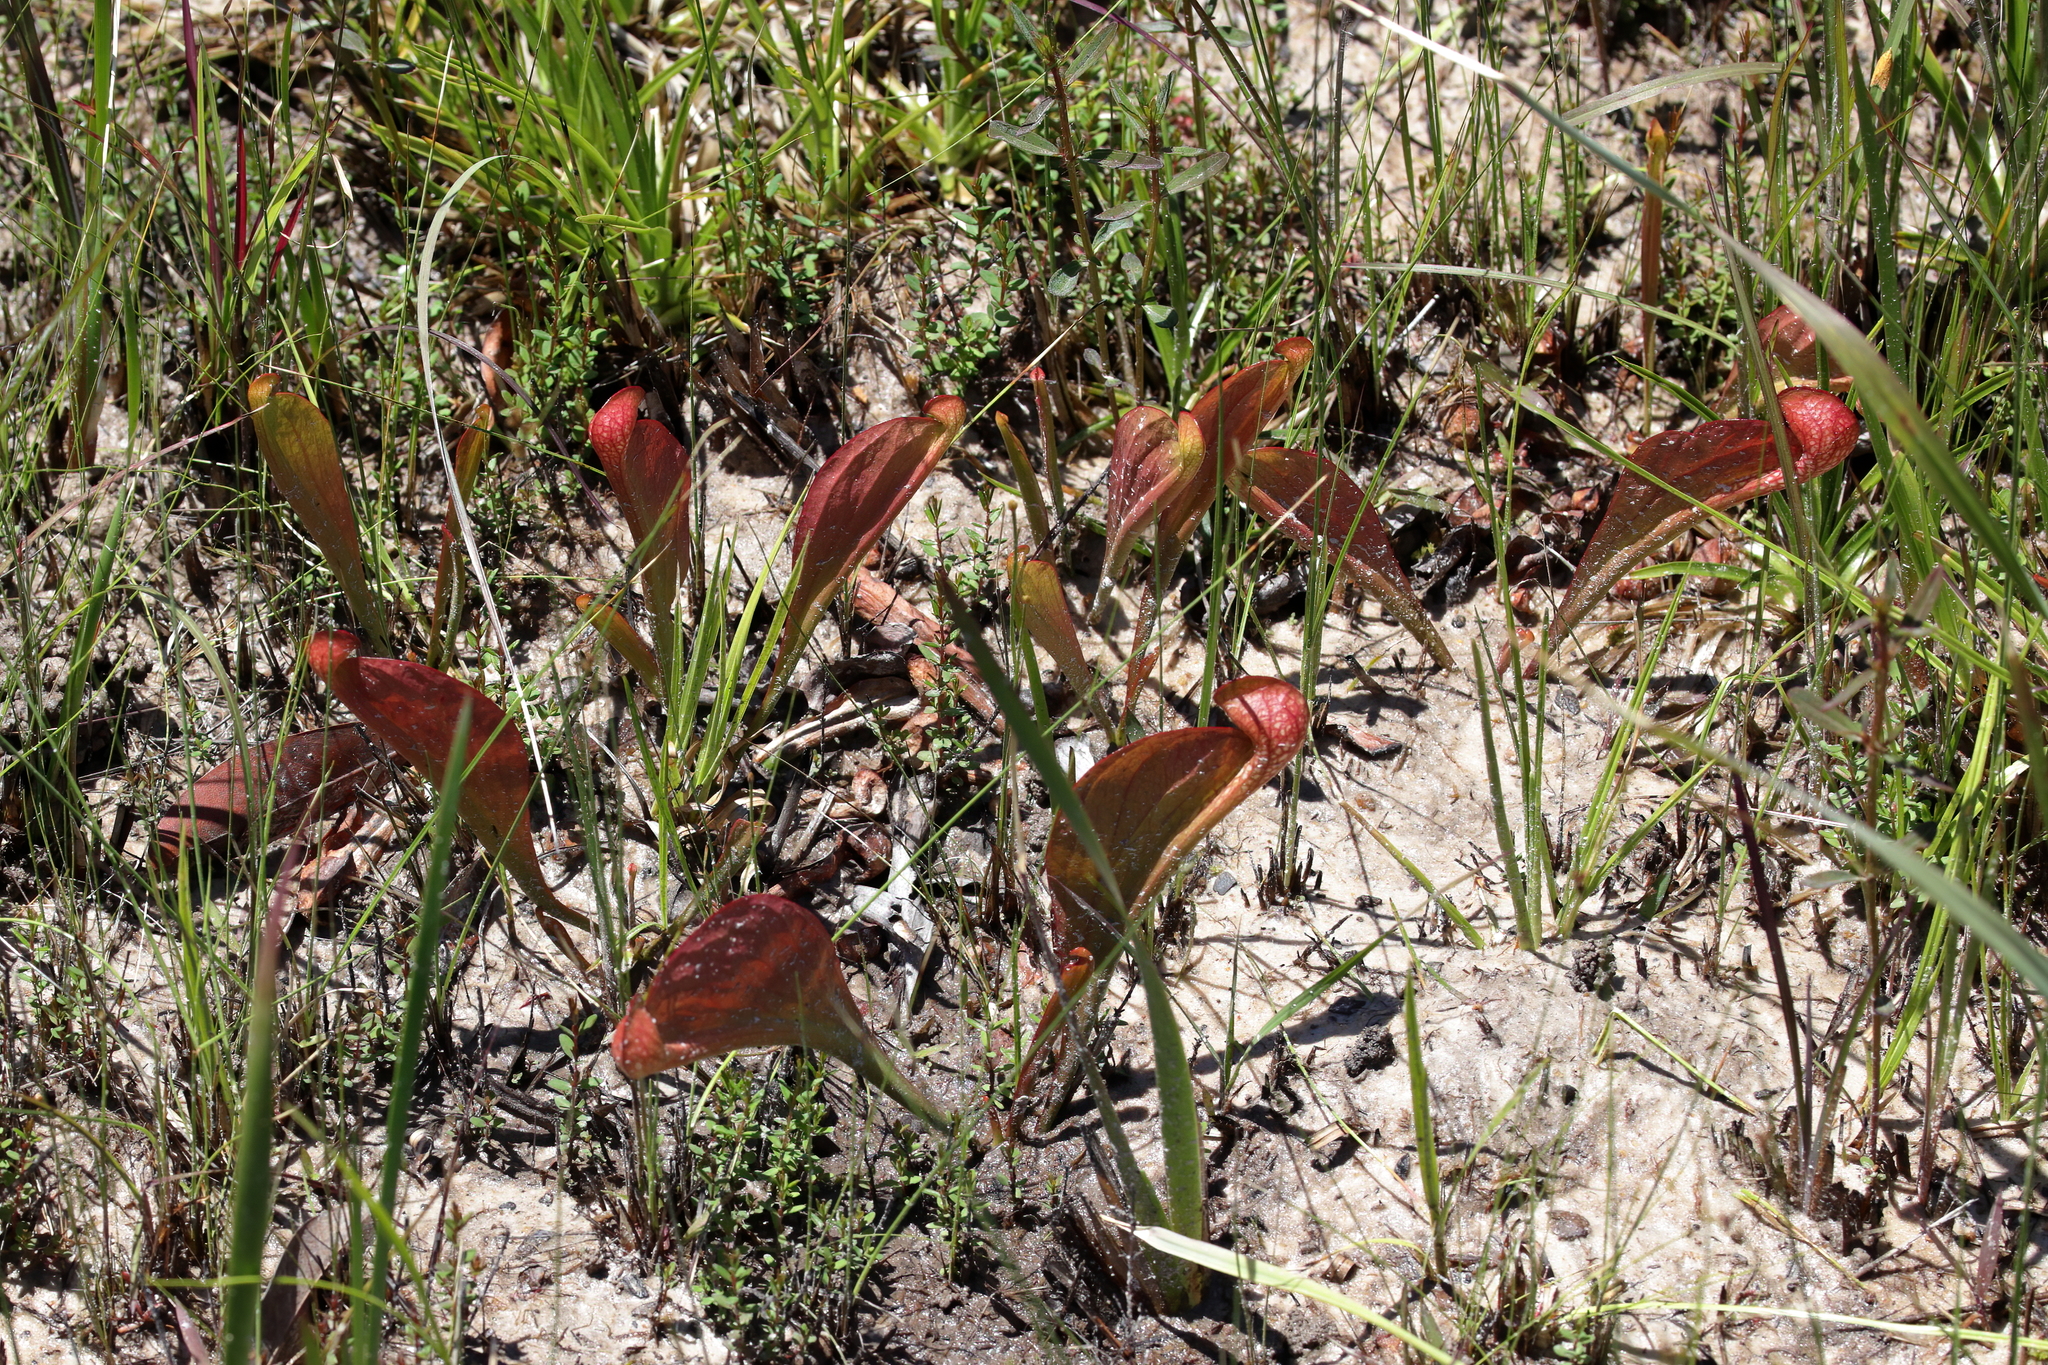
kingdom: Plantae
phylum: Tracheophyta
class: Magnoliopsida
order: Ericales
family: Sarraceniaceae
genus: Sarracenia
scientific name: Sarracenia psittacina
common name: Parrot pitcherplant
